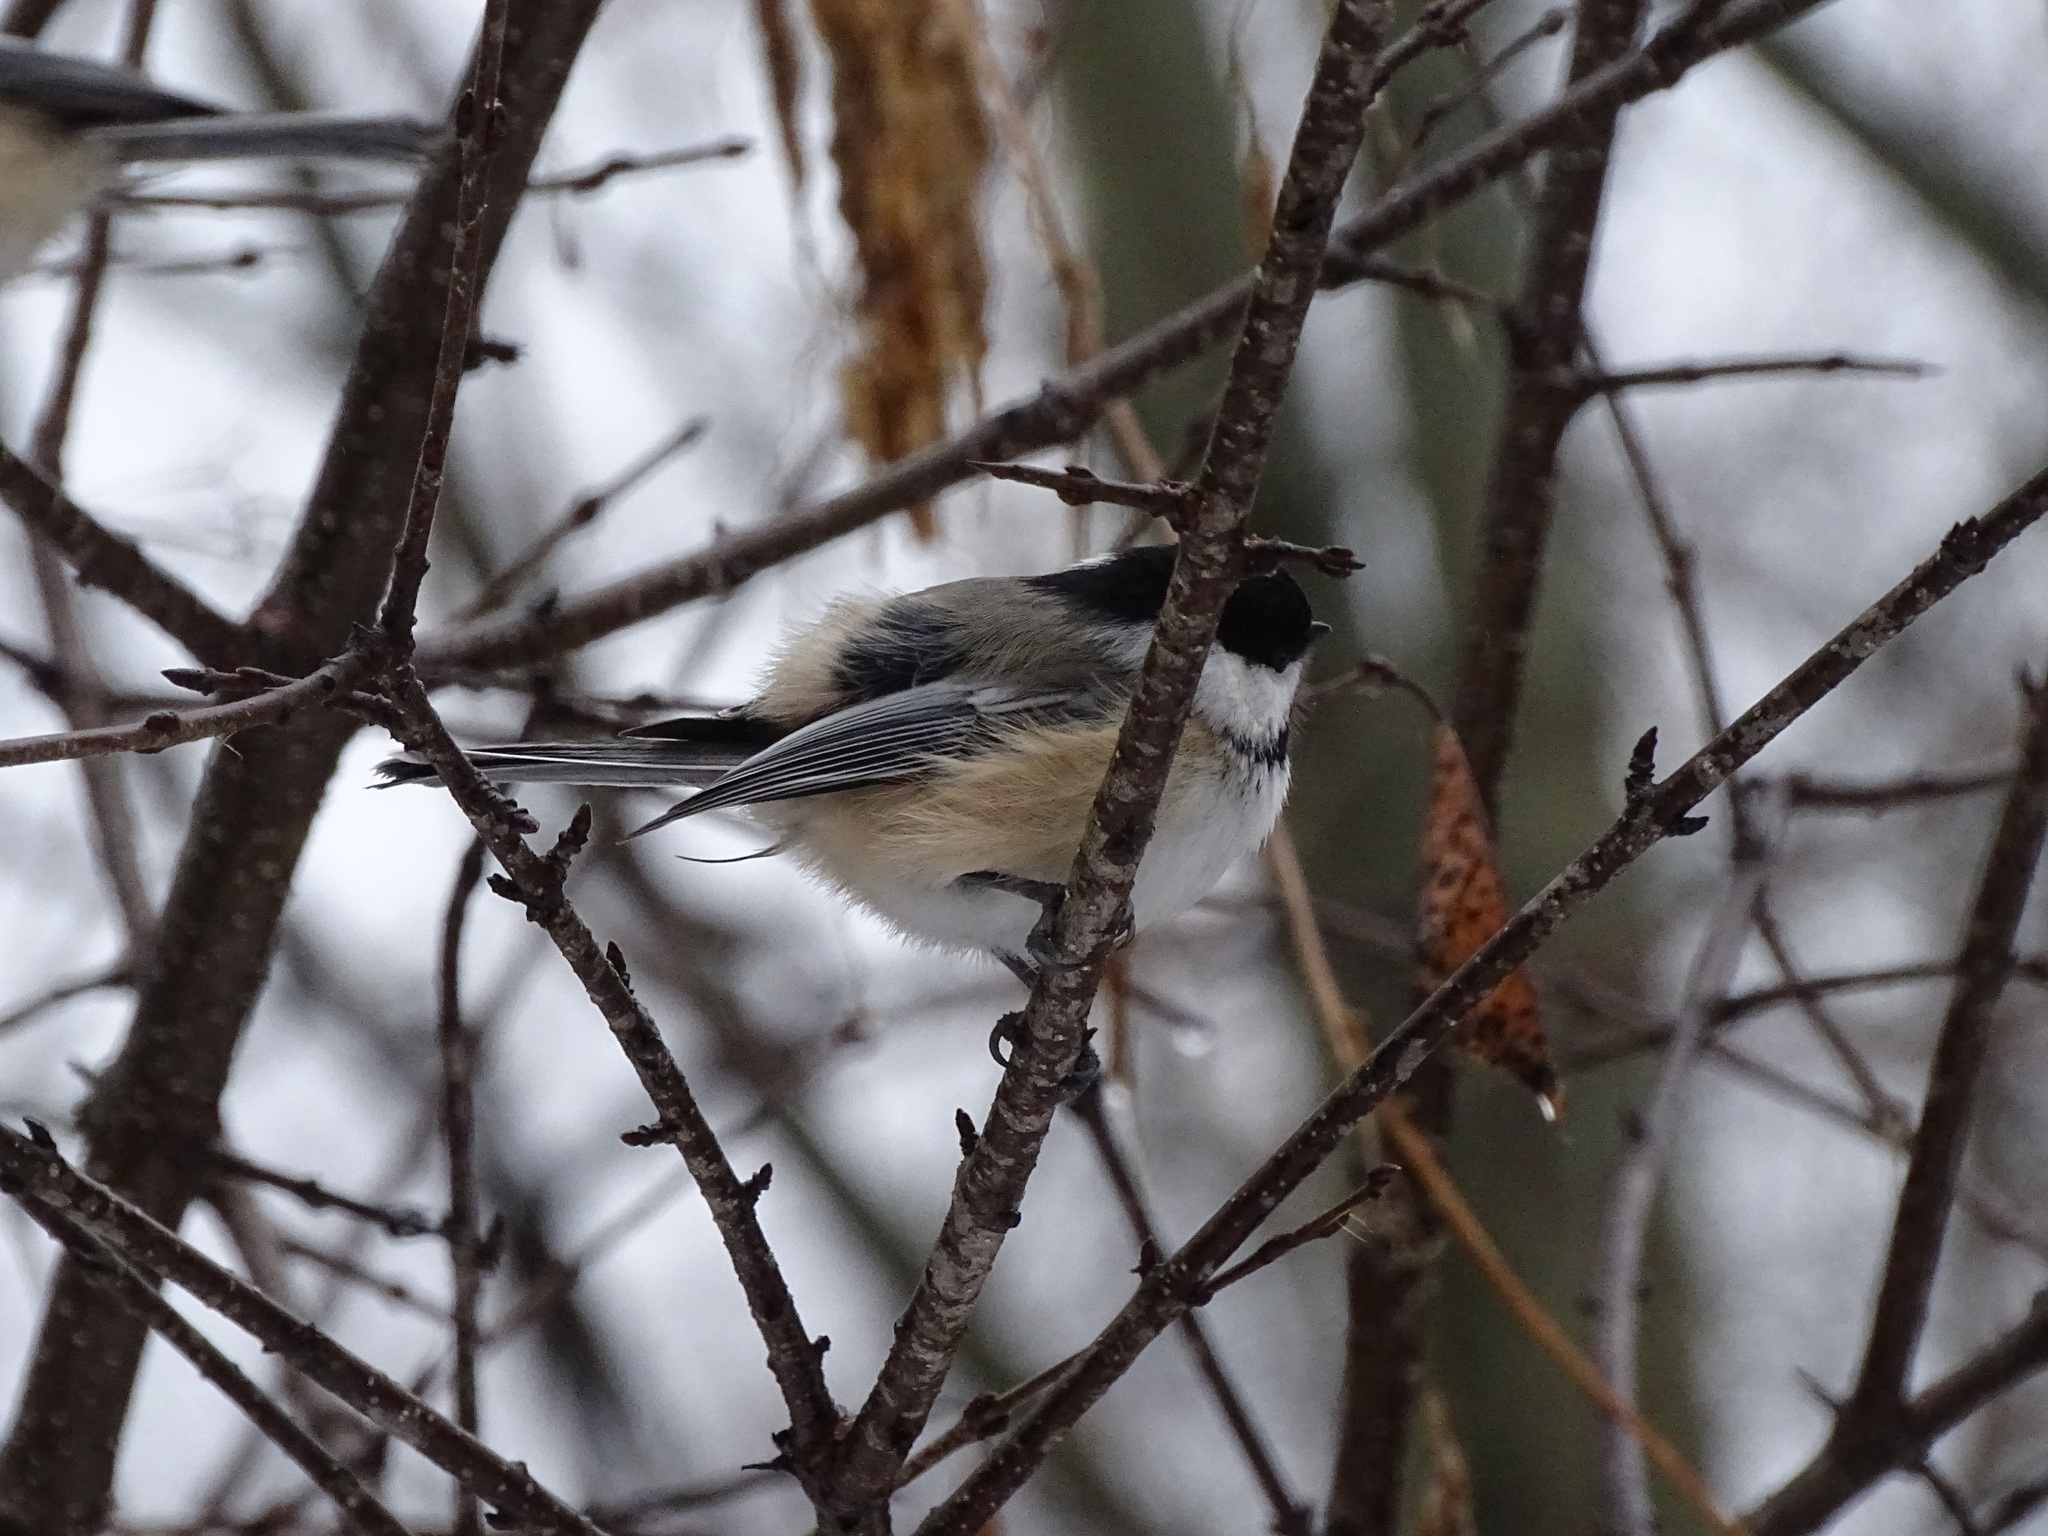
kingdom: Animalia
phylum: Chordata
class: Aves
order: Passeriformes
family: Paridae
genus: Poecile
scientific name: Poecile atricapillus
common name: Black-capped chickadee
